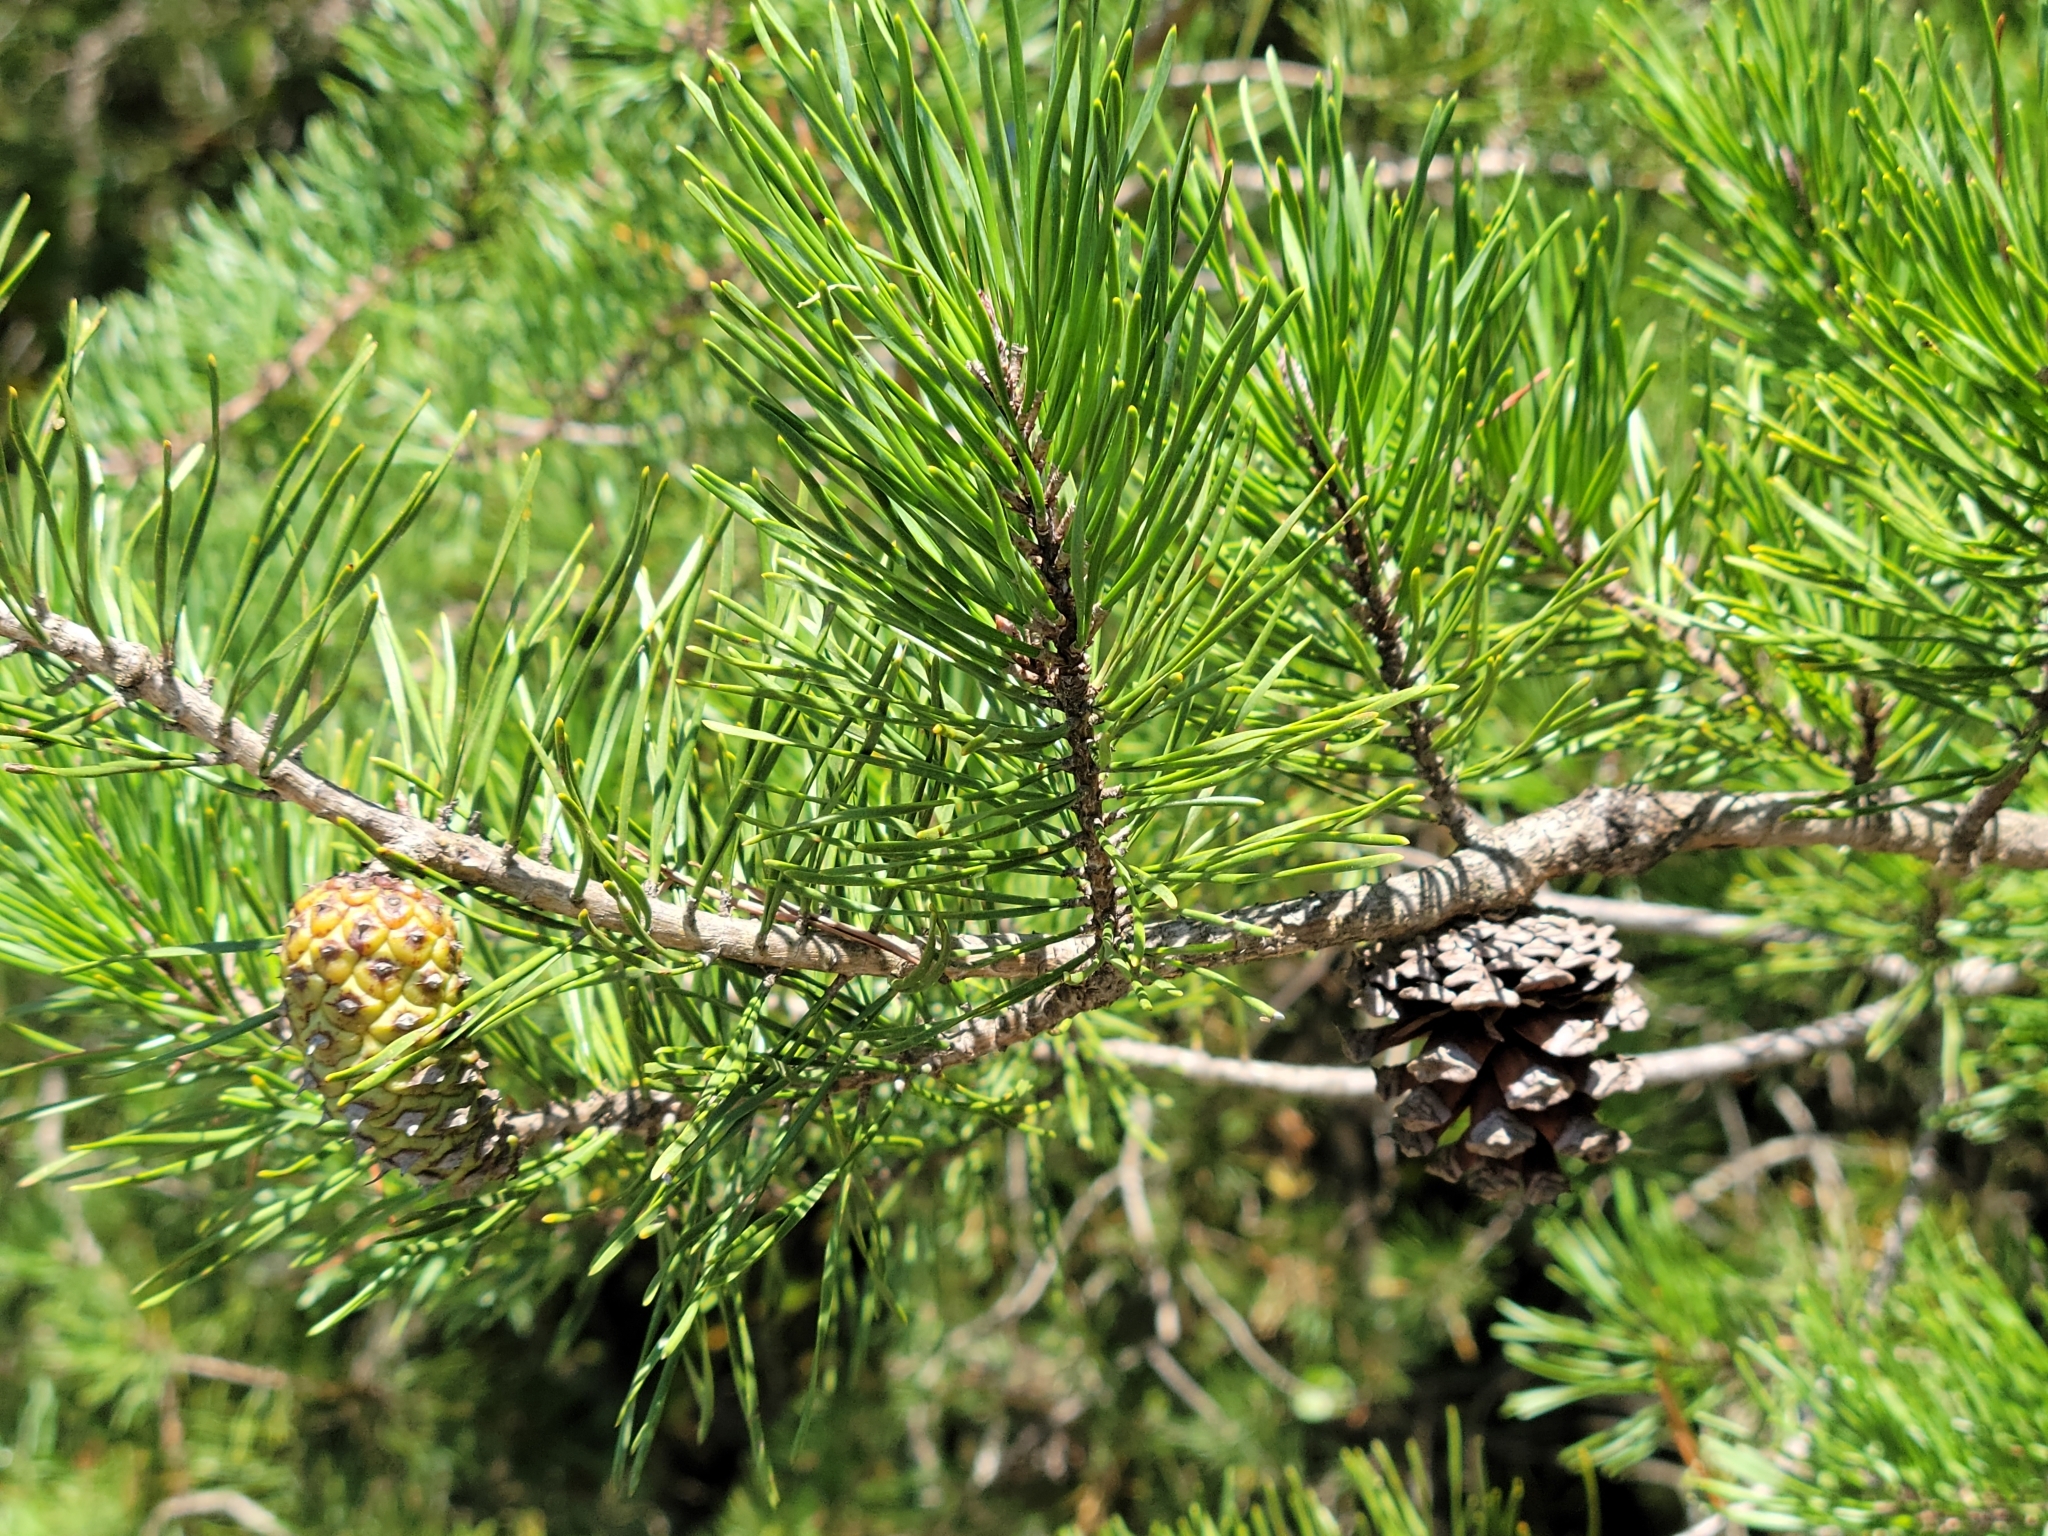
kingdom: Plantae
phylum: Tracheophyta
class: Pinopsida
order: Pinales
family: Pinaceae
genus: Pinus
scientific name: Pinus virginiana
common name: Scrub pine
